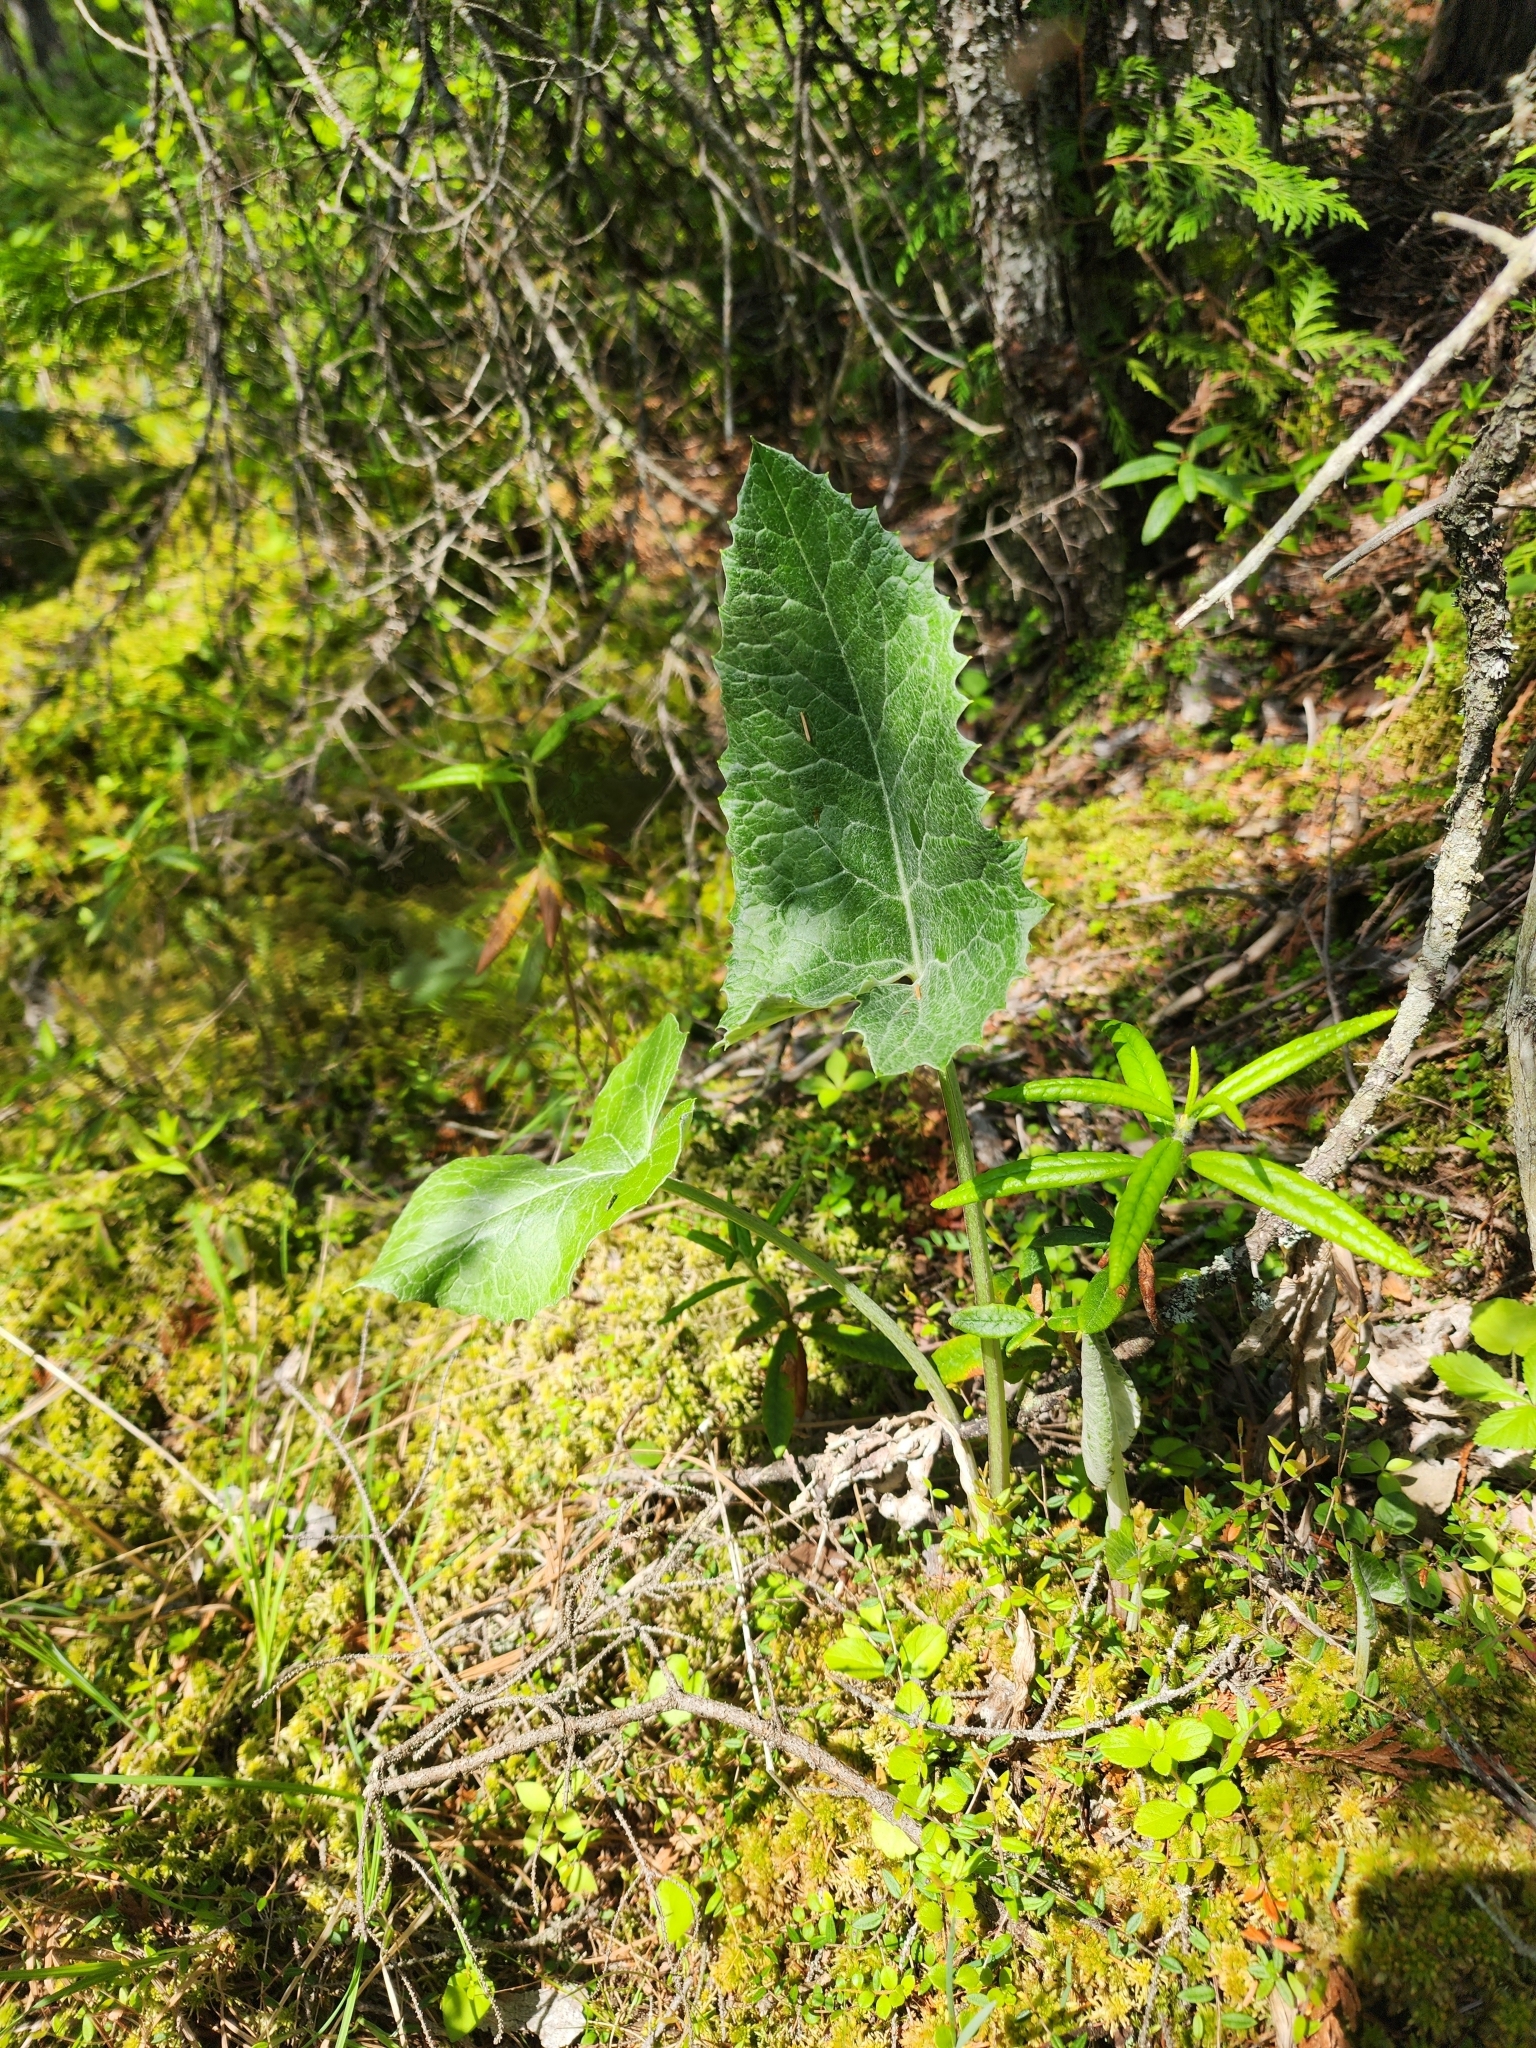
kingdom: Plantae
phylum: Tracheophyta
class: Magnoliopsida
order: Asterales
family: Asteraceae
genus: Petasites
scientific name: Petasites frigidus
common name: Arctic butterbur
